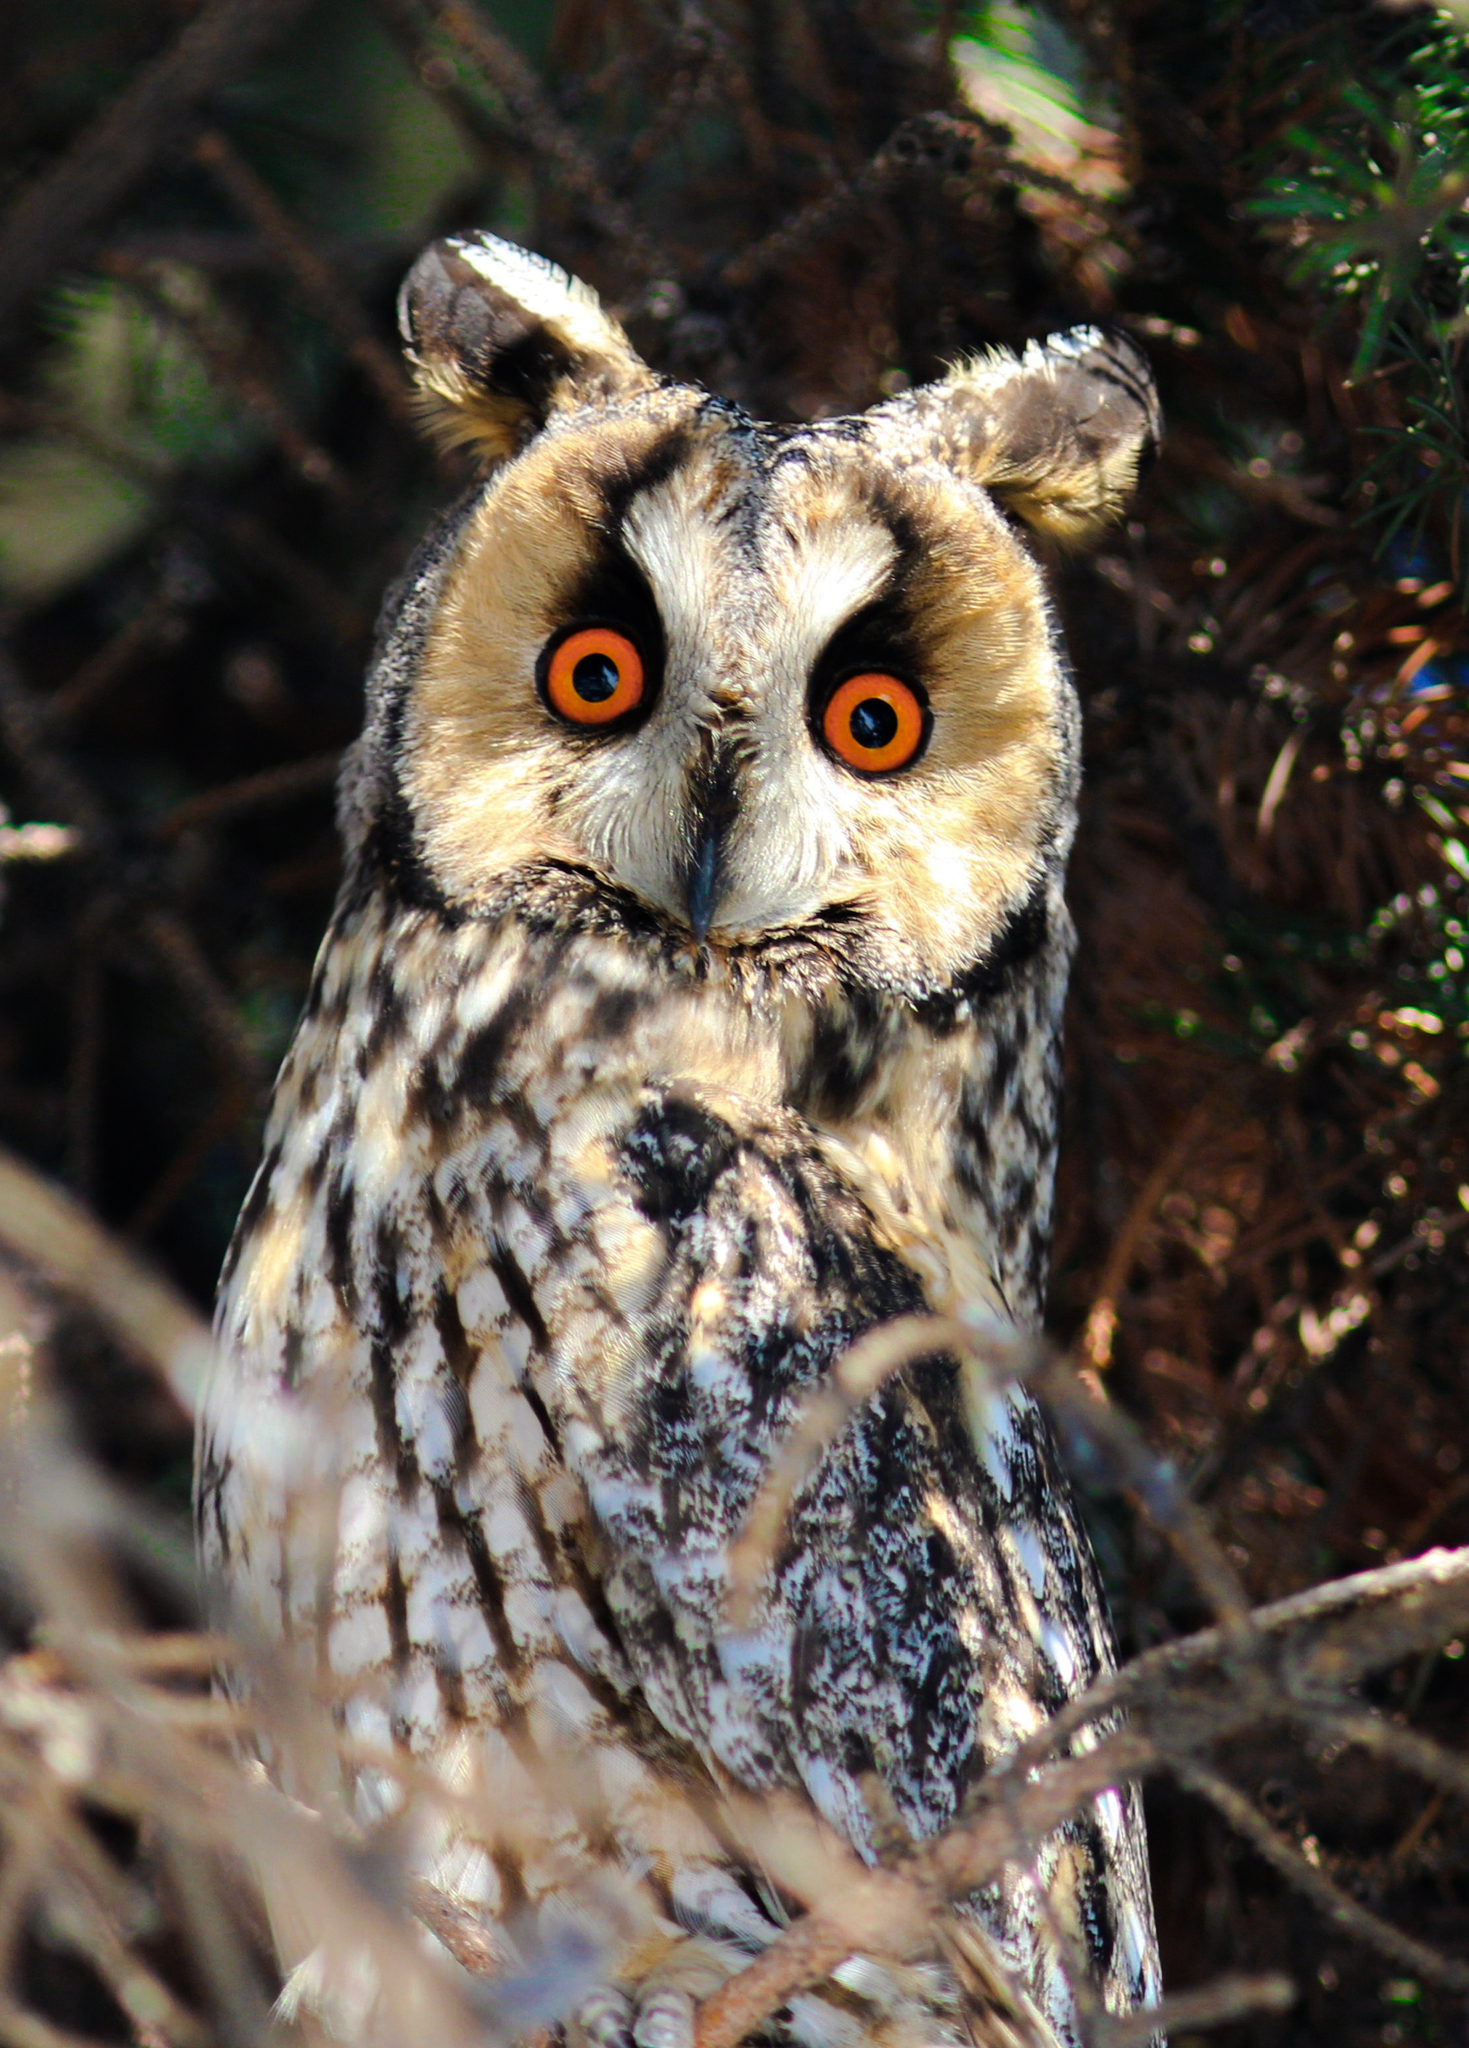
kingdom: Animalia
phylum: Chordata
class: Aves
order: Strigiformes
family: Strigidae
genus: Asio
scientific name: Asio otus
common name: Long-eared owl
